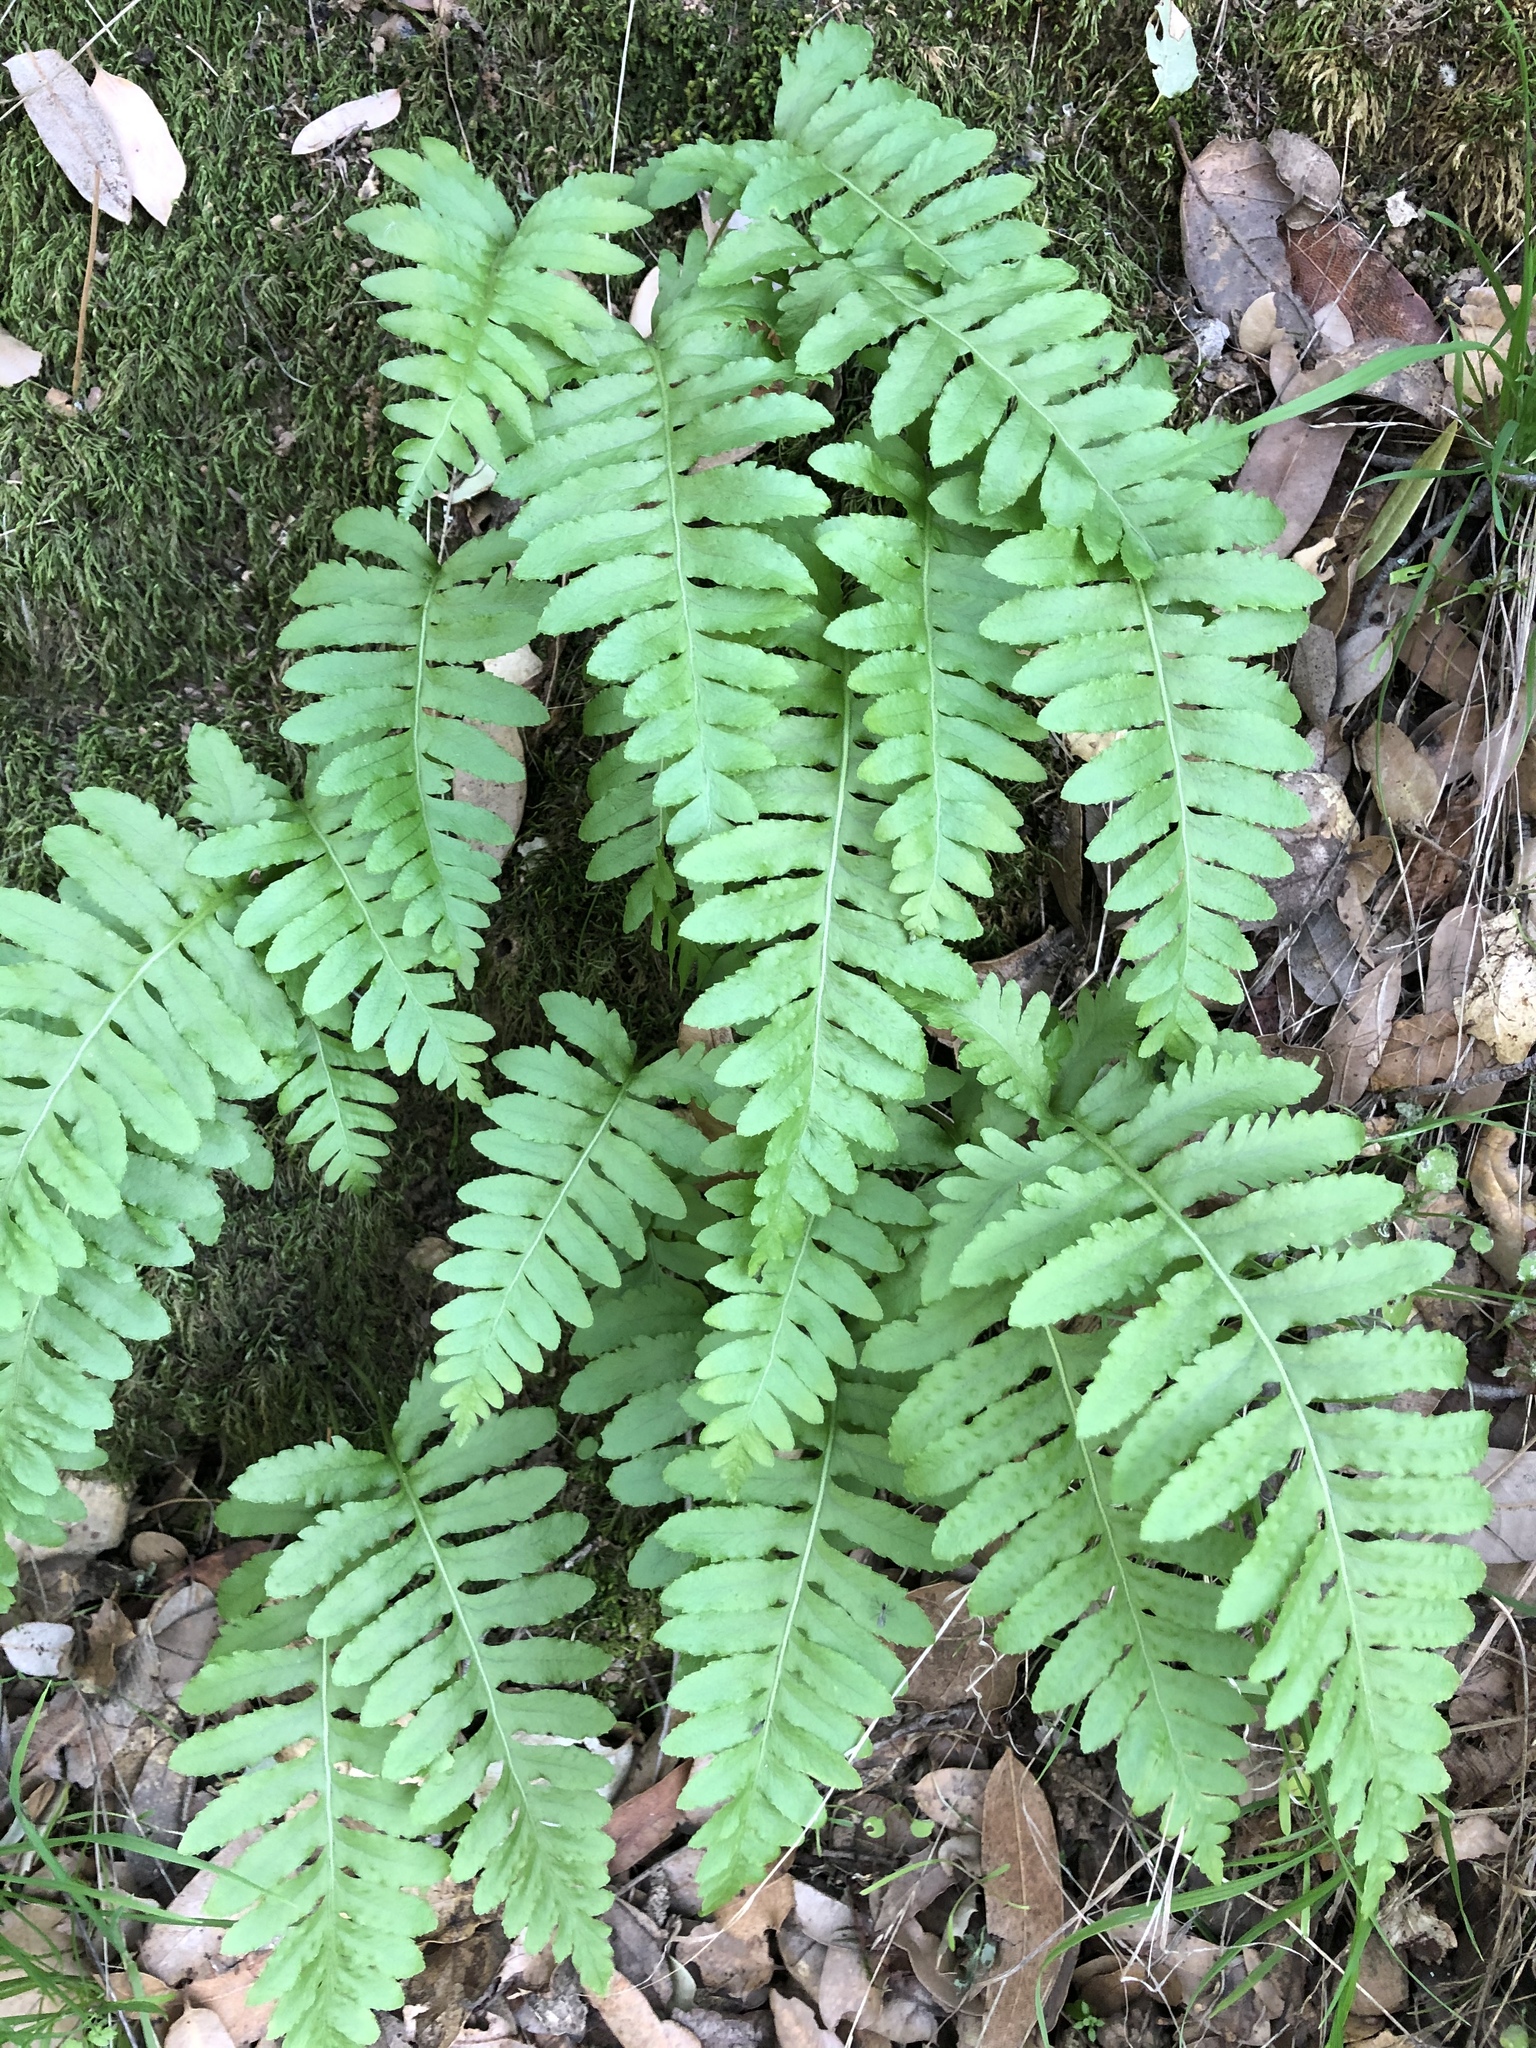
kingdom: Plantae
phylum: Tracheophyta
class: Polypodiopsida
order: Polypodiales
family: Polypodiaceae
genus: Polypodium
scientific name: Polypodium calirhiza
